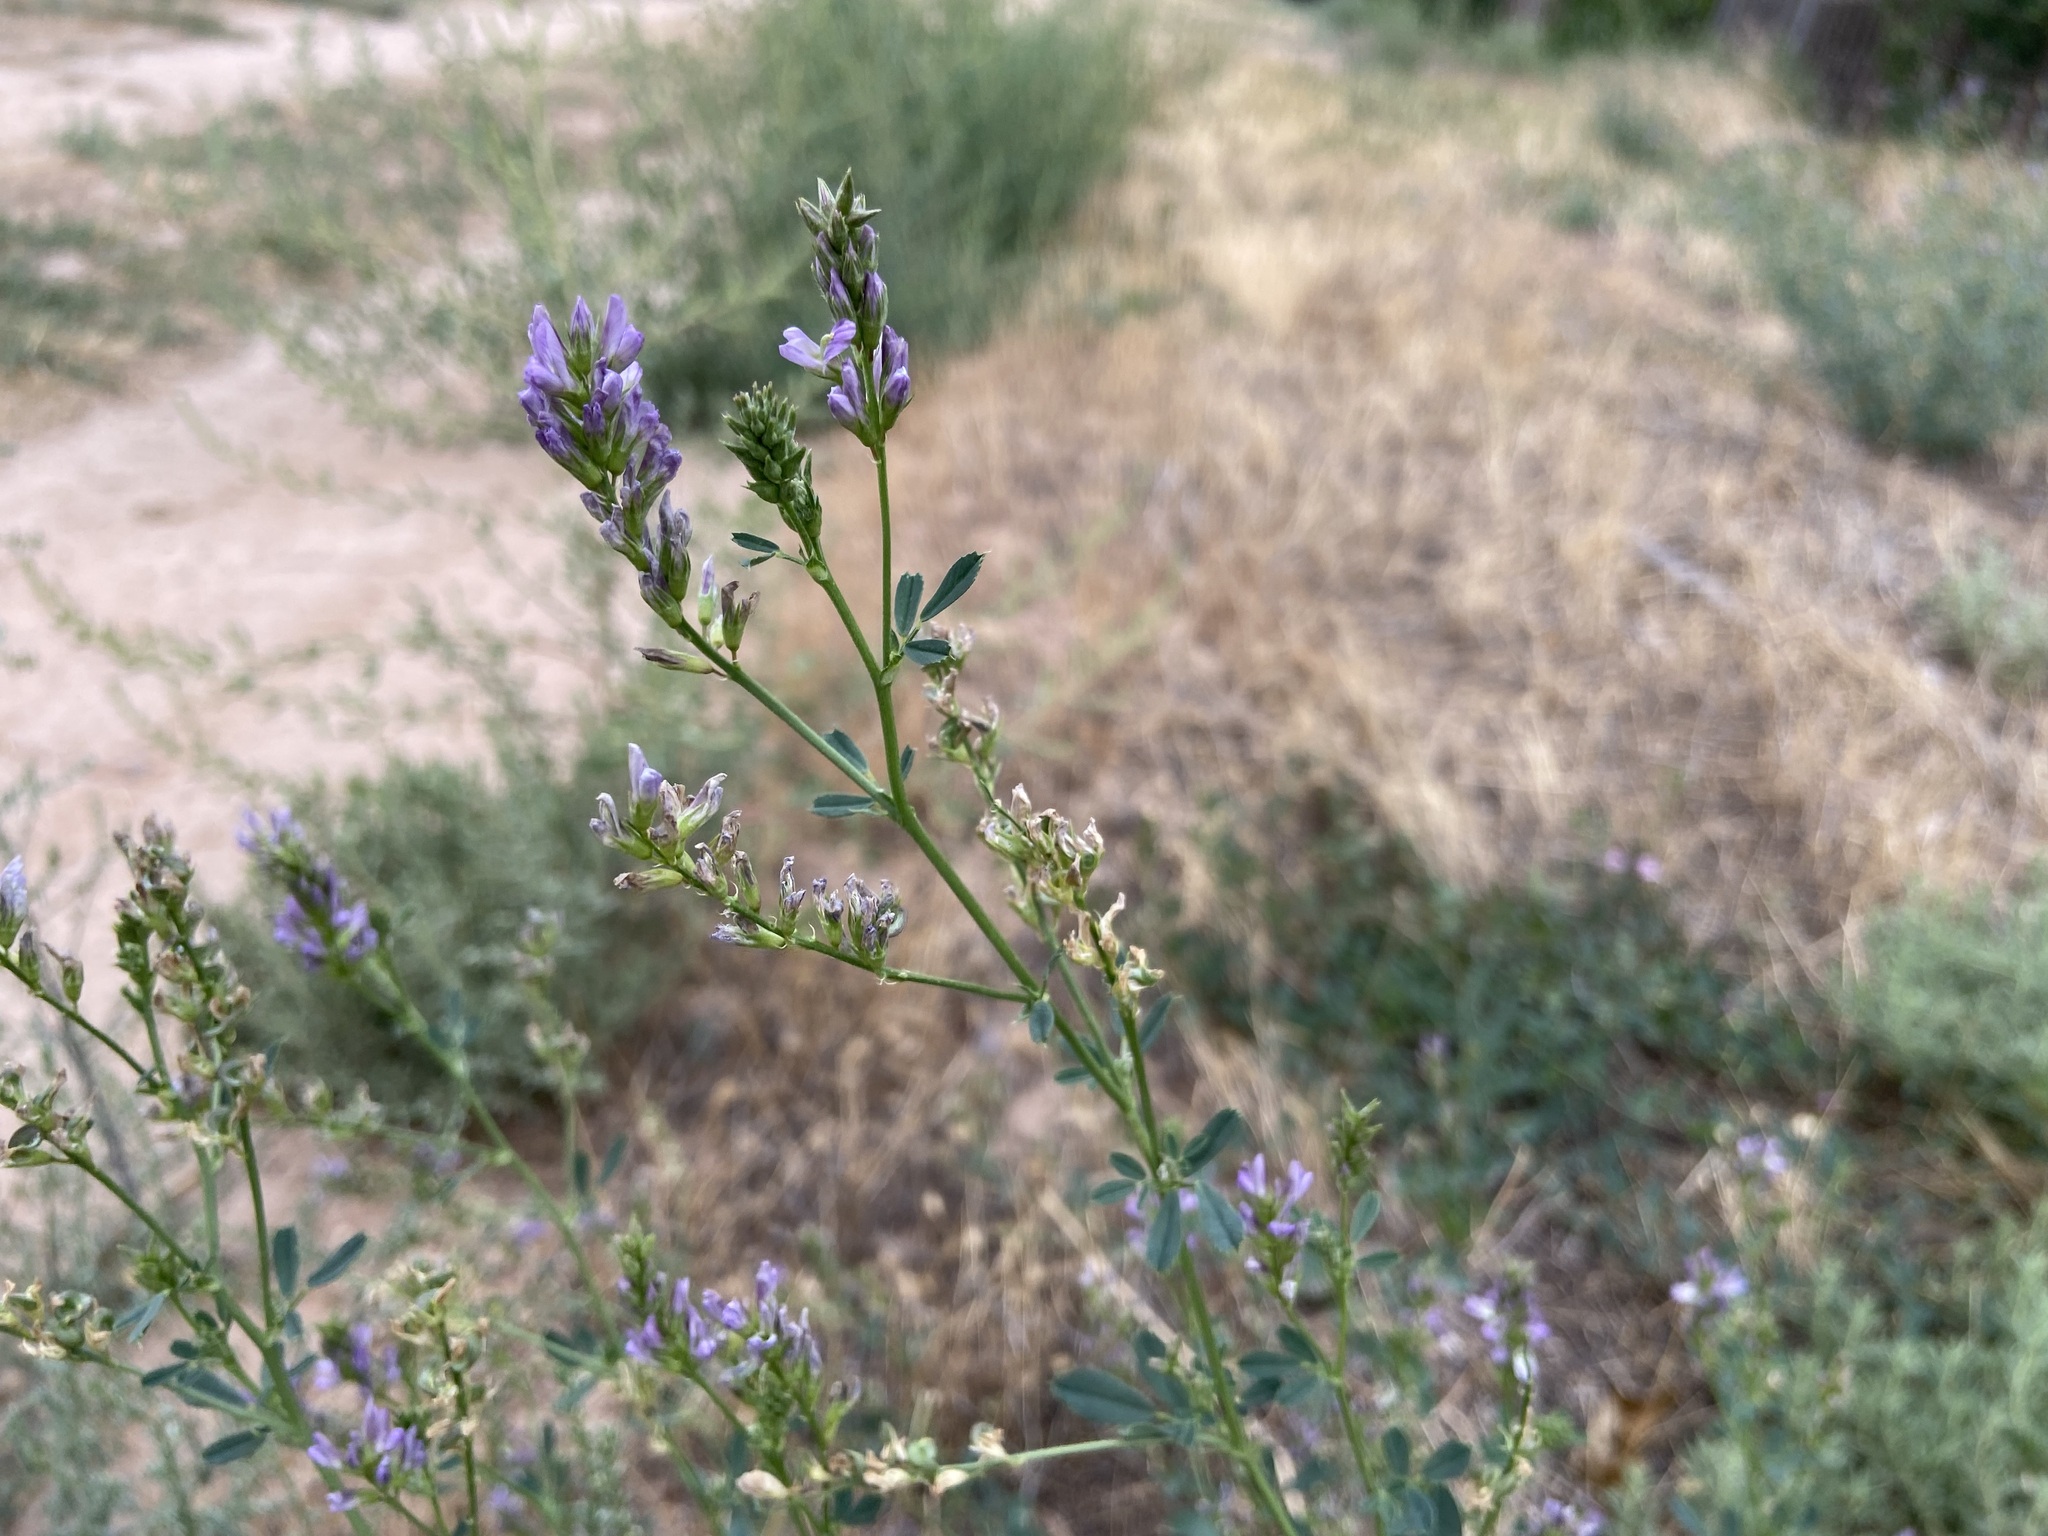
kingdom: Plantae
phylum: Tracheophyta
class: Magnoliopsida
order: Fabales
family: Fabaceae
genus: Medicago
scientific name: Medicago sativa
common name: Alfalfa
